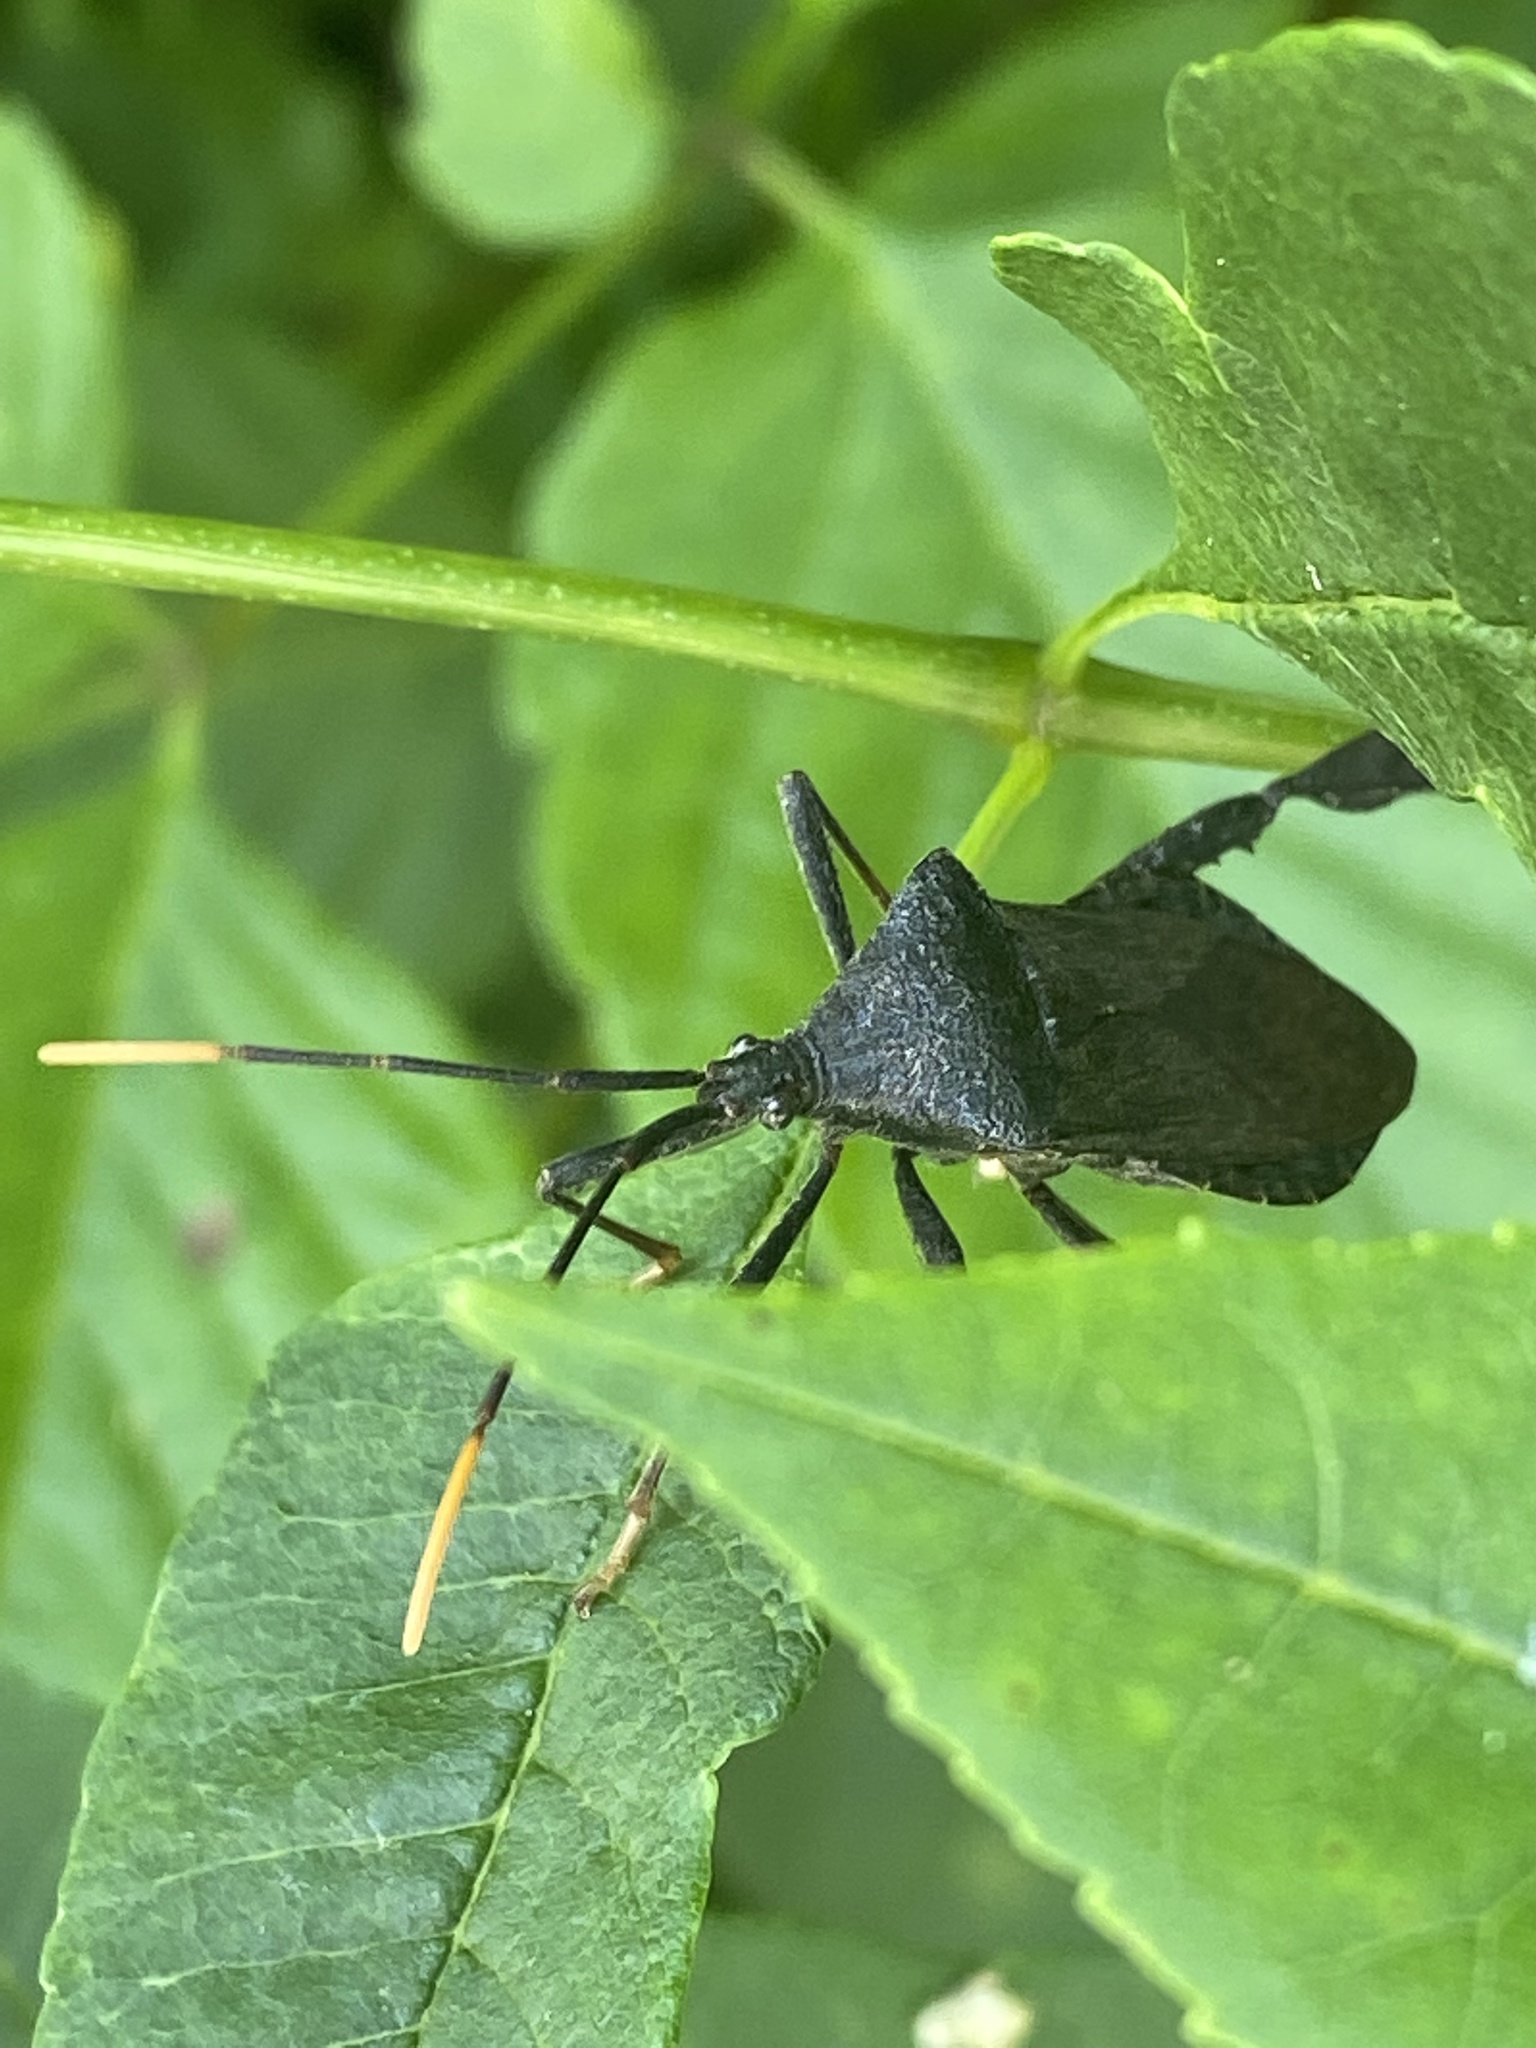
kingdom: Animalia
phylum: Arthropoda
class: Insecta
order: Hemiptera
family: Coreidae
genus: Acanthocephala
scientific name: Acanthocephala terminalis
